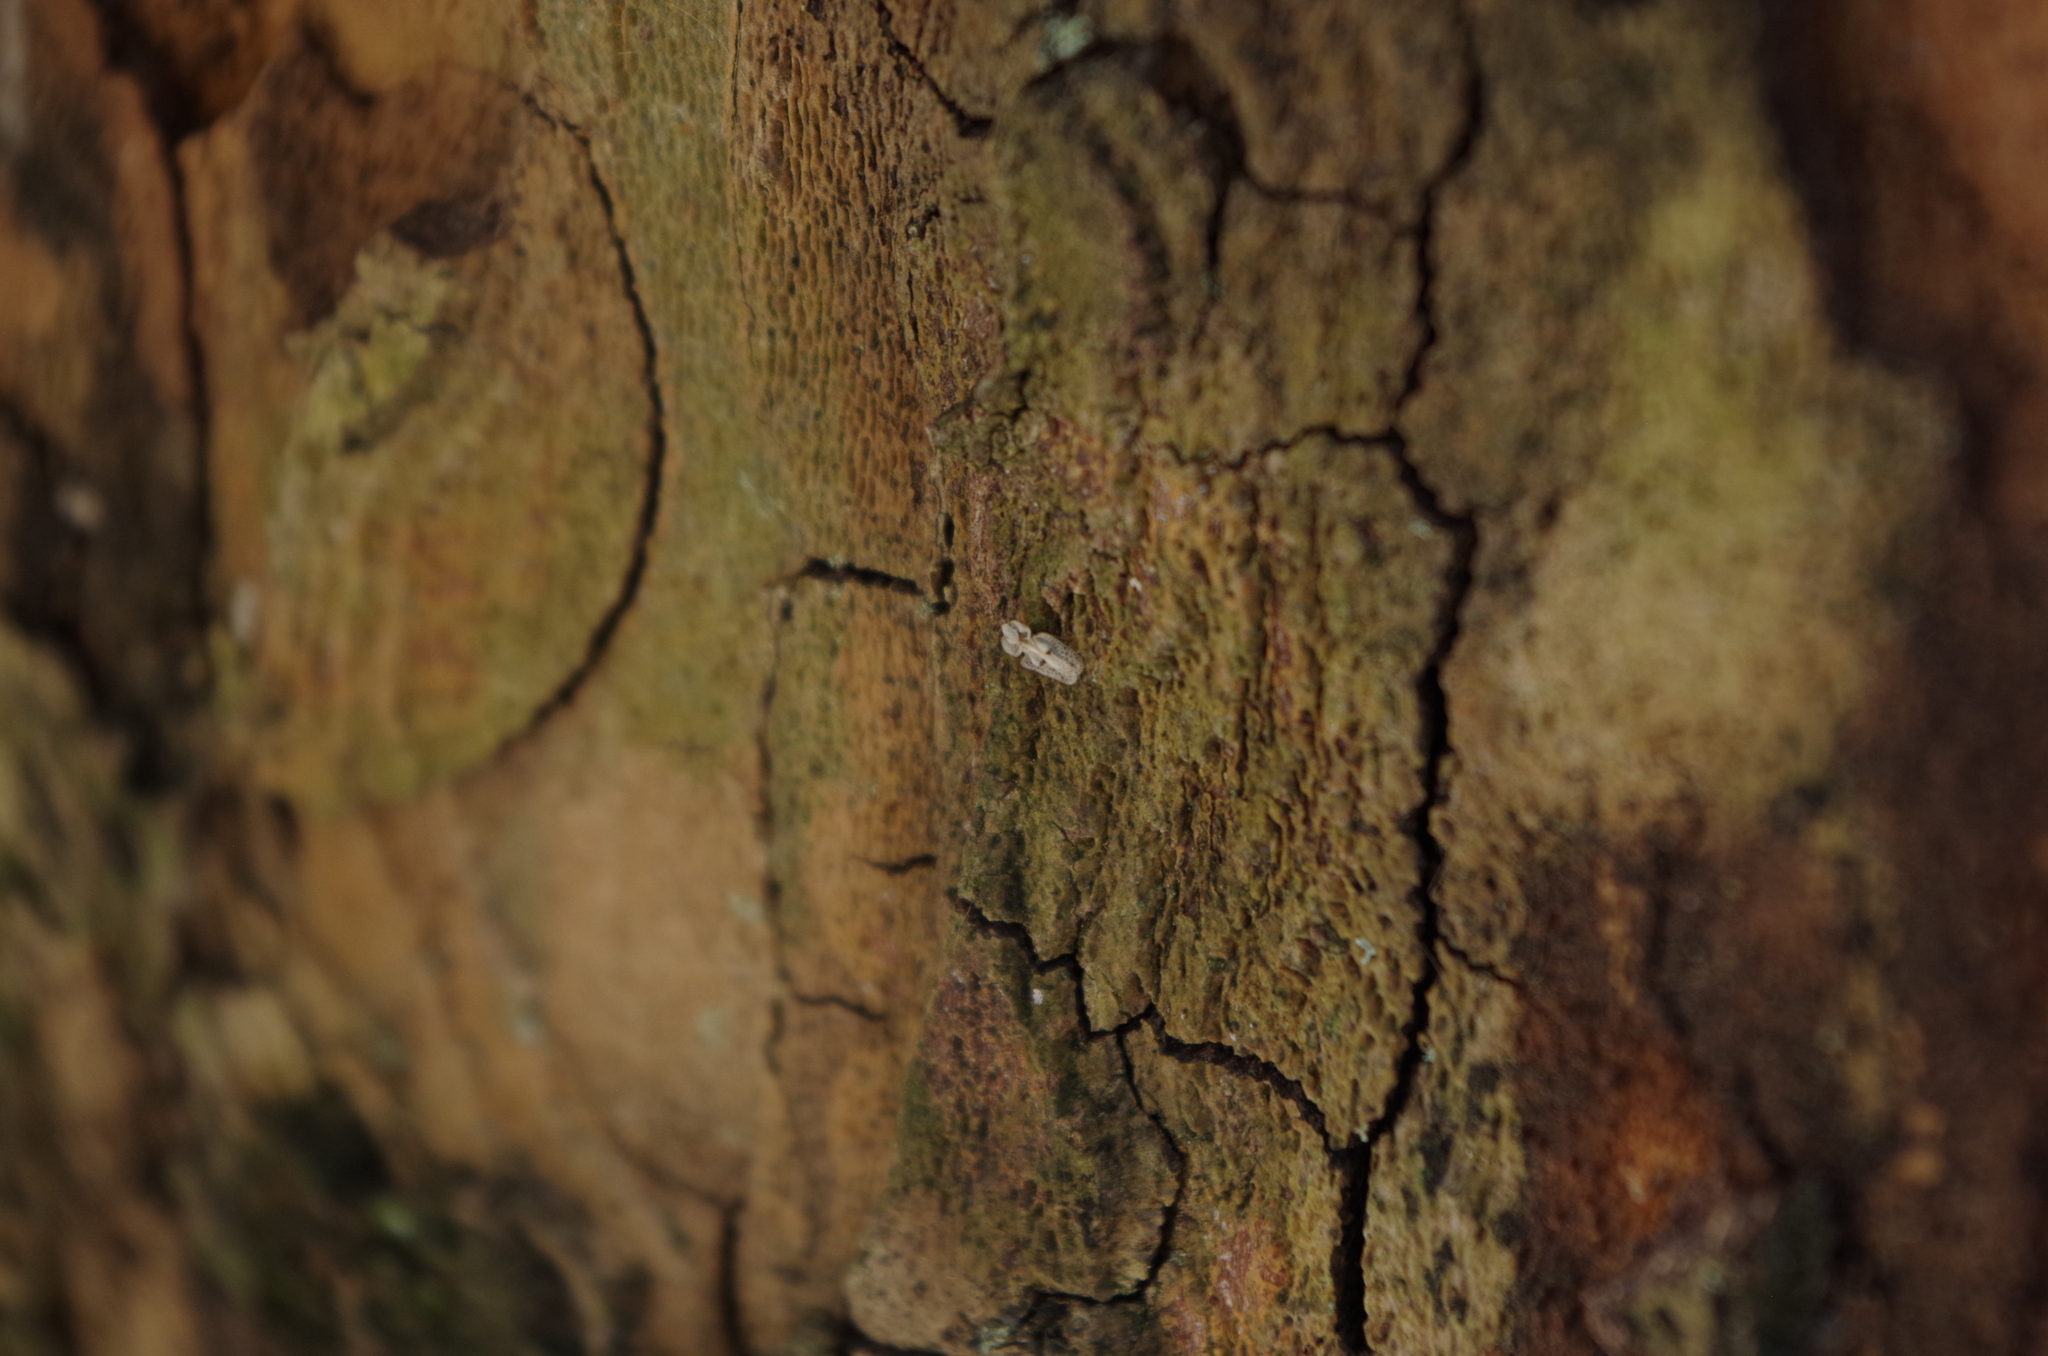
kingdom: Animalia
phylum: Arthropoda
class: Insecta
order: Hemiptera
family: Tingidae
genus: Corythucha
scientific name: Corythucha ciliata
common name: Sycamore lace bug
